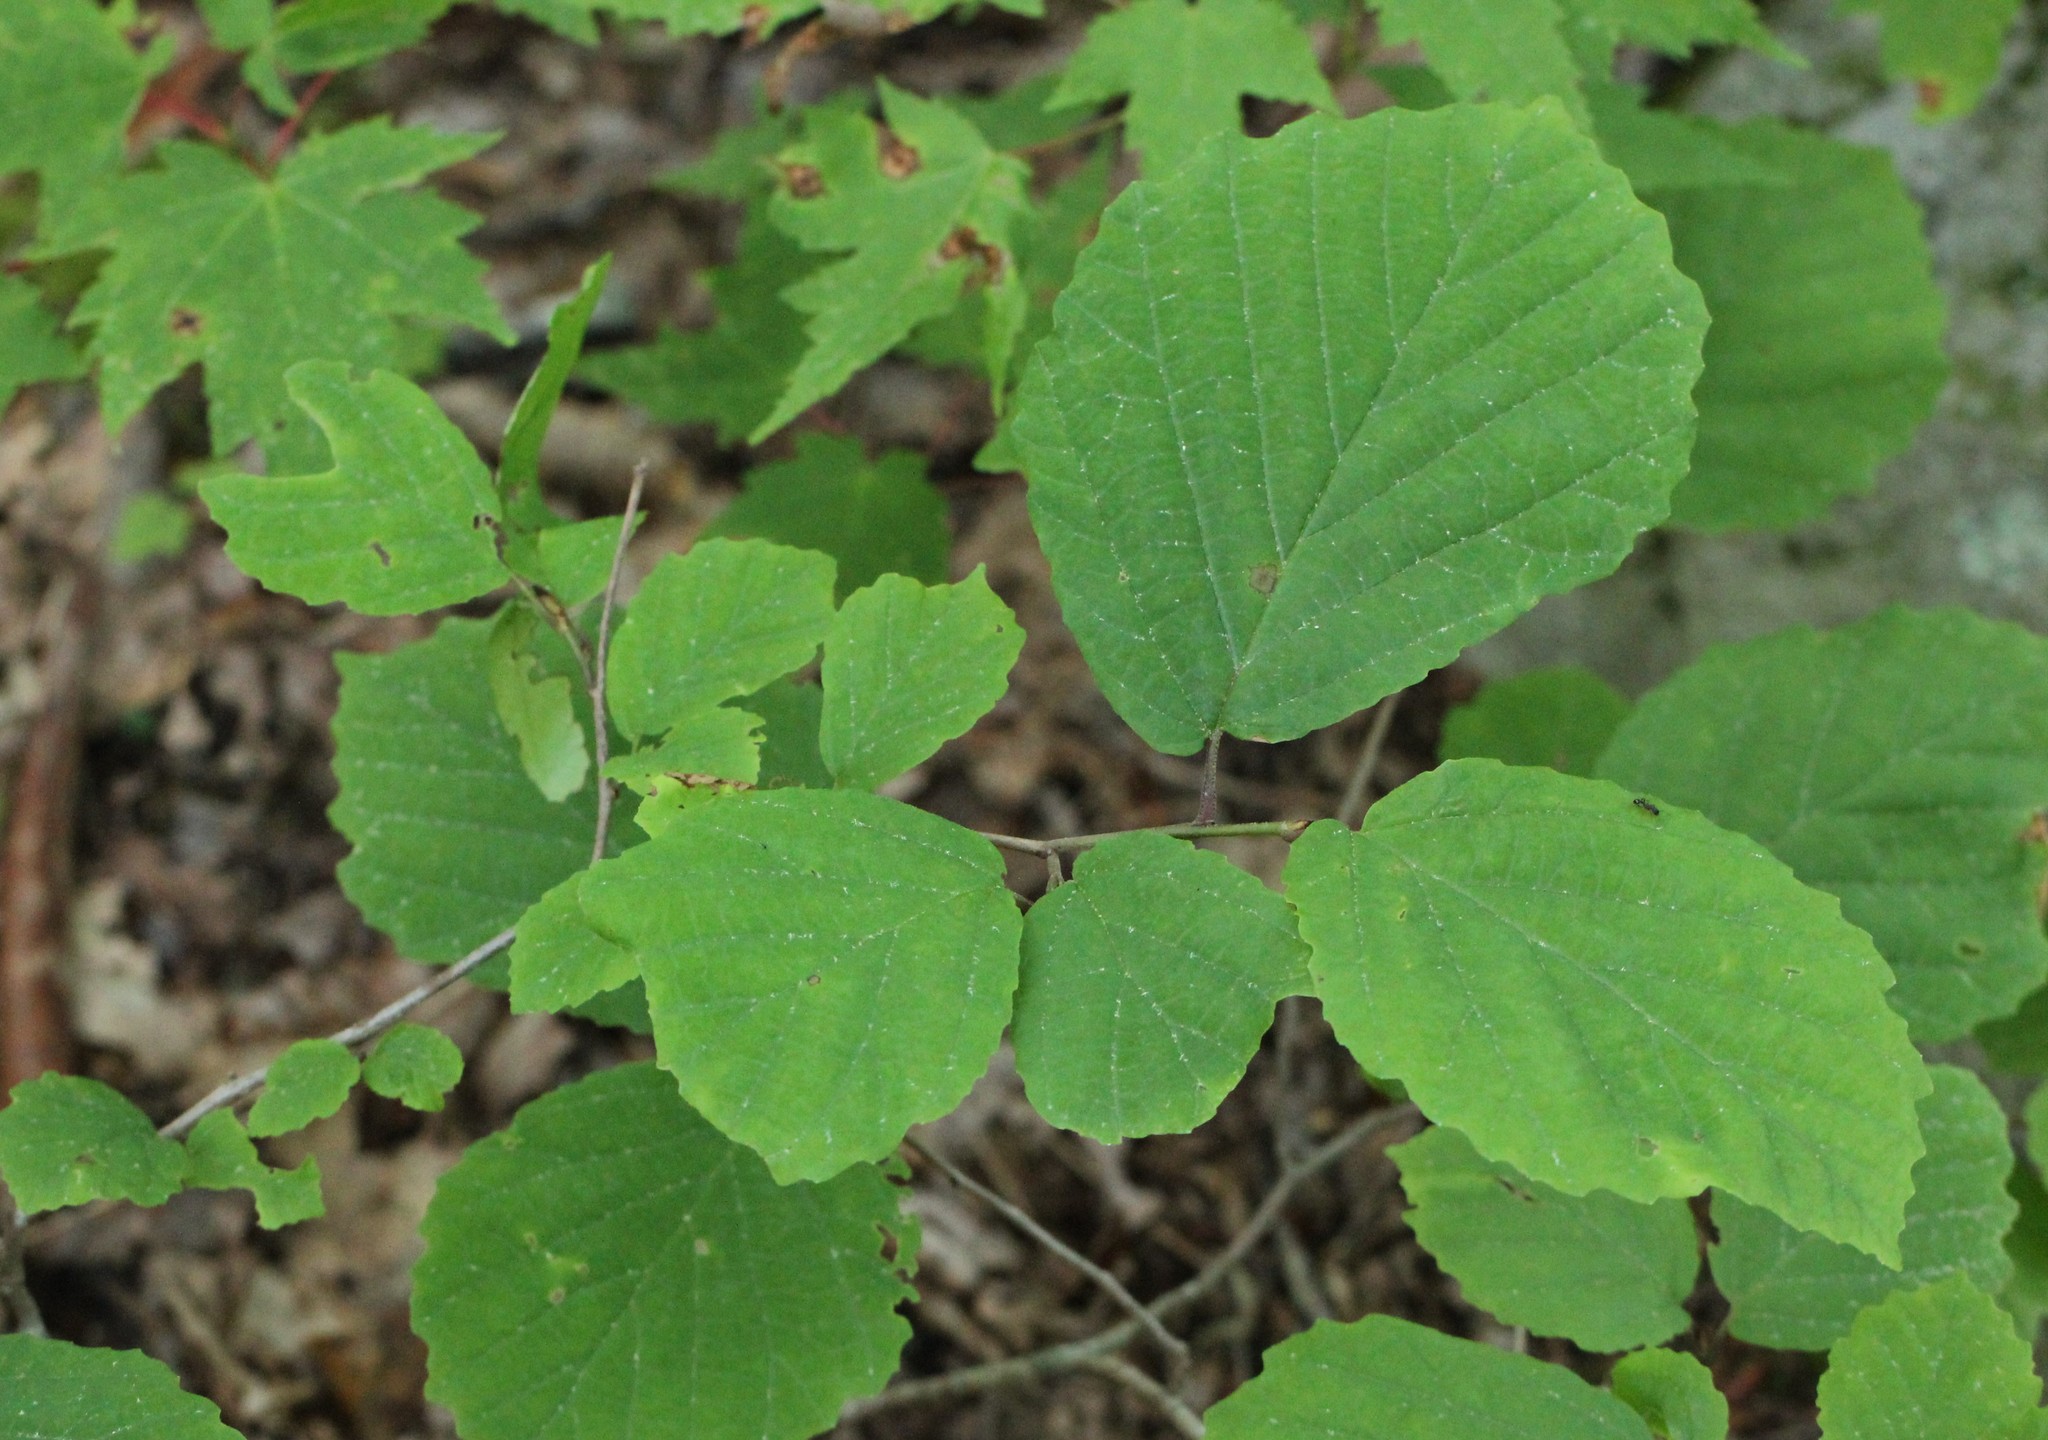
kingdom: Plantae
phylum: Tracheophyta
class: Magnoliopsida
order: Saxifragales
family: Hamamelidaceae
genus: Hamamelis
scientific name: Hamamelis virginiana
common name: Witch-hazel
